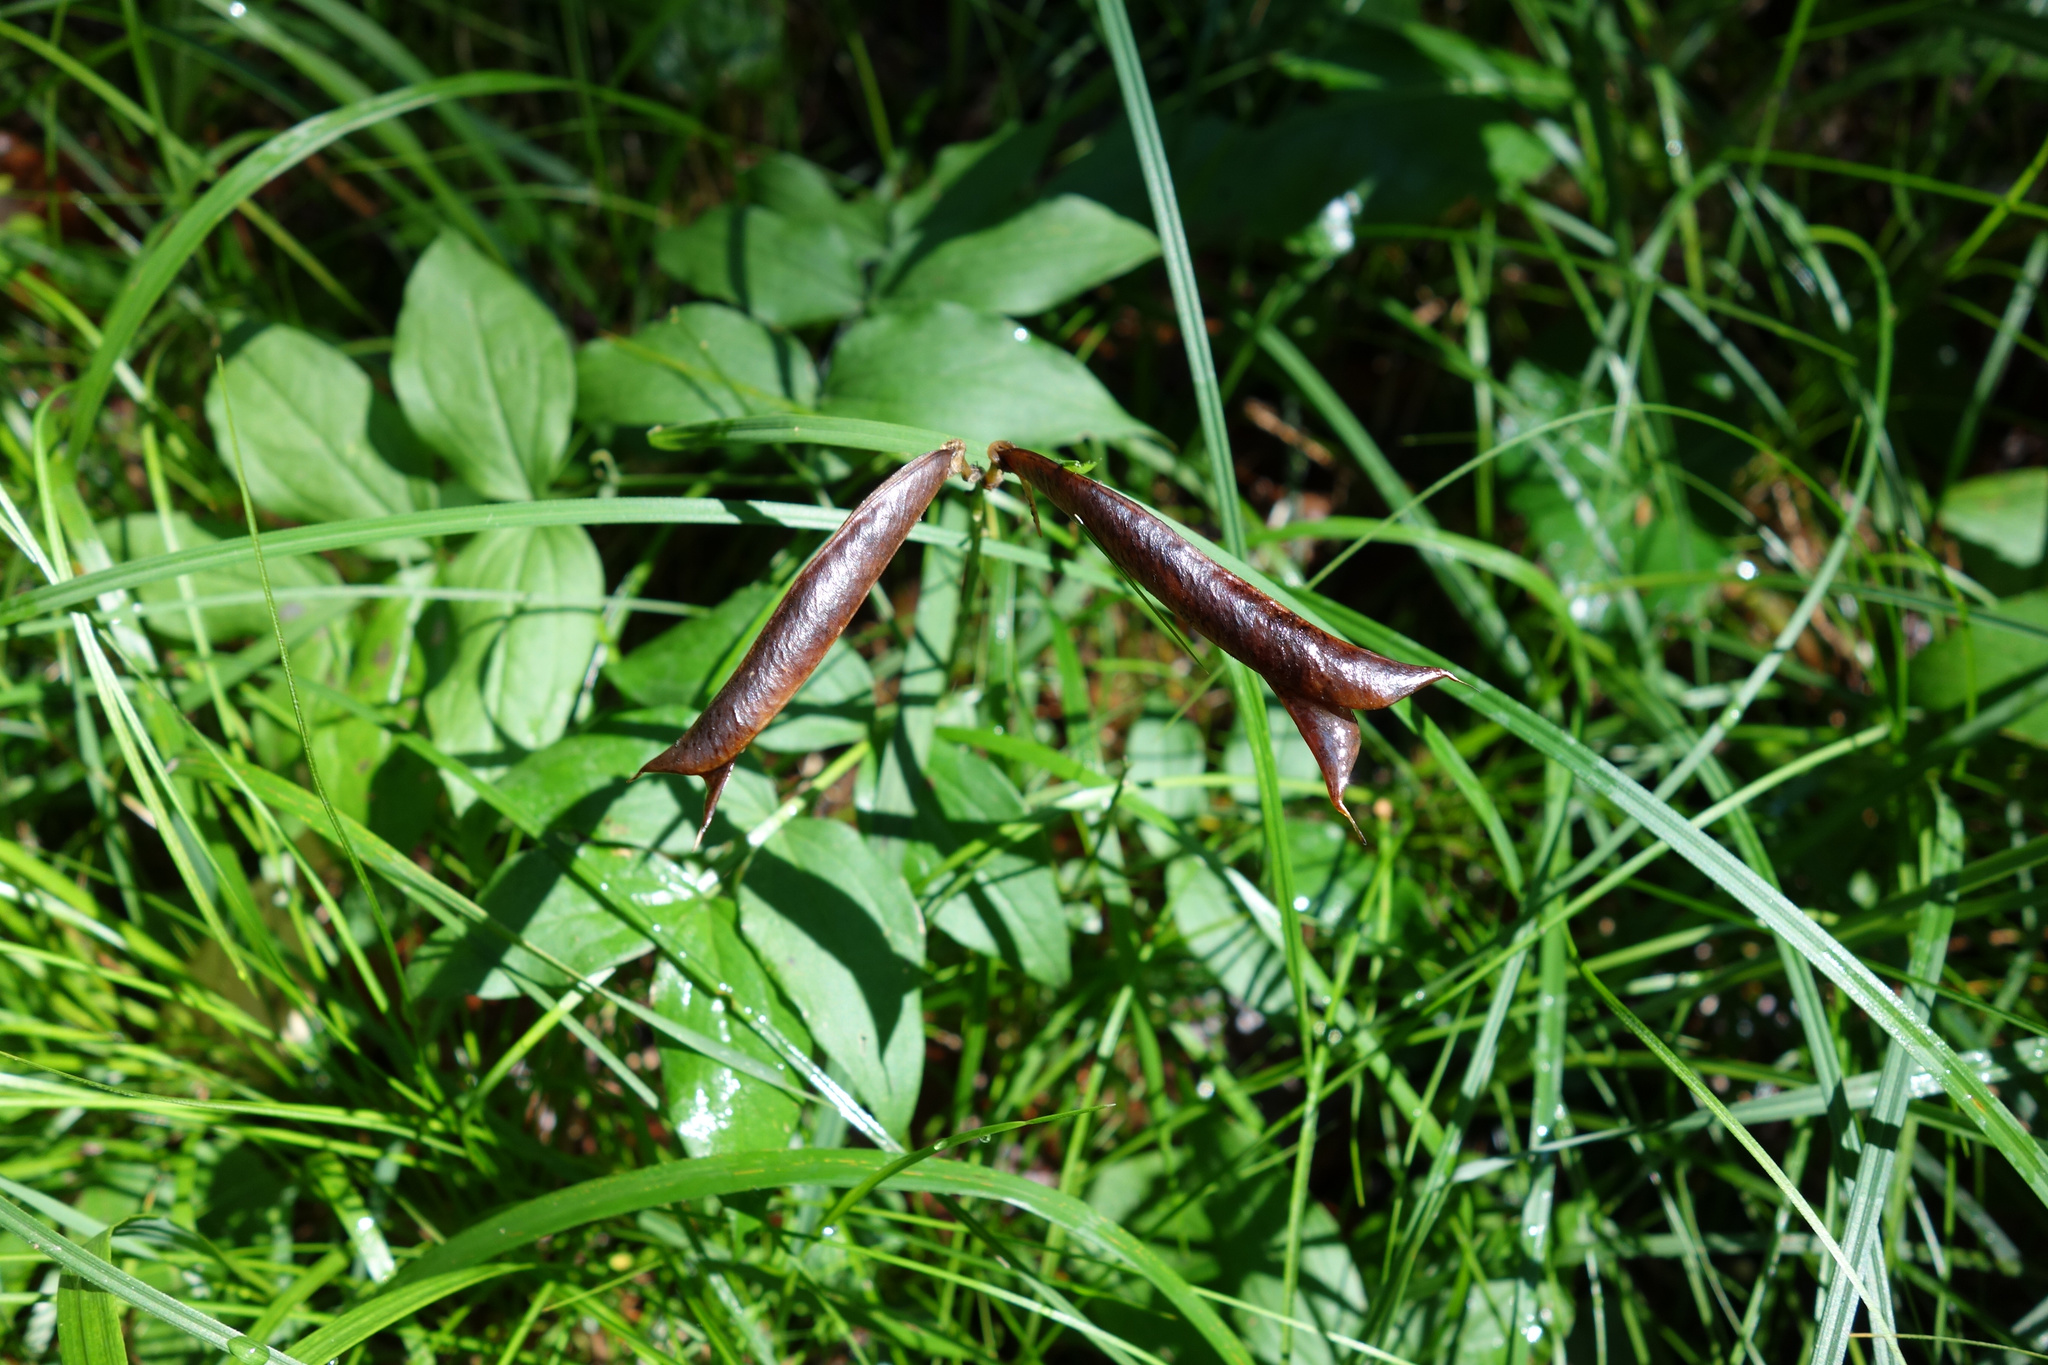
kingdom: Plantae
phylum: Tracheophyta
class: Magnoliopsida
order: Fabales
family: Fabaceae
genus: Lathyrus
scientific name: Lathyrus vernus
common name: Spring pea
